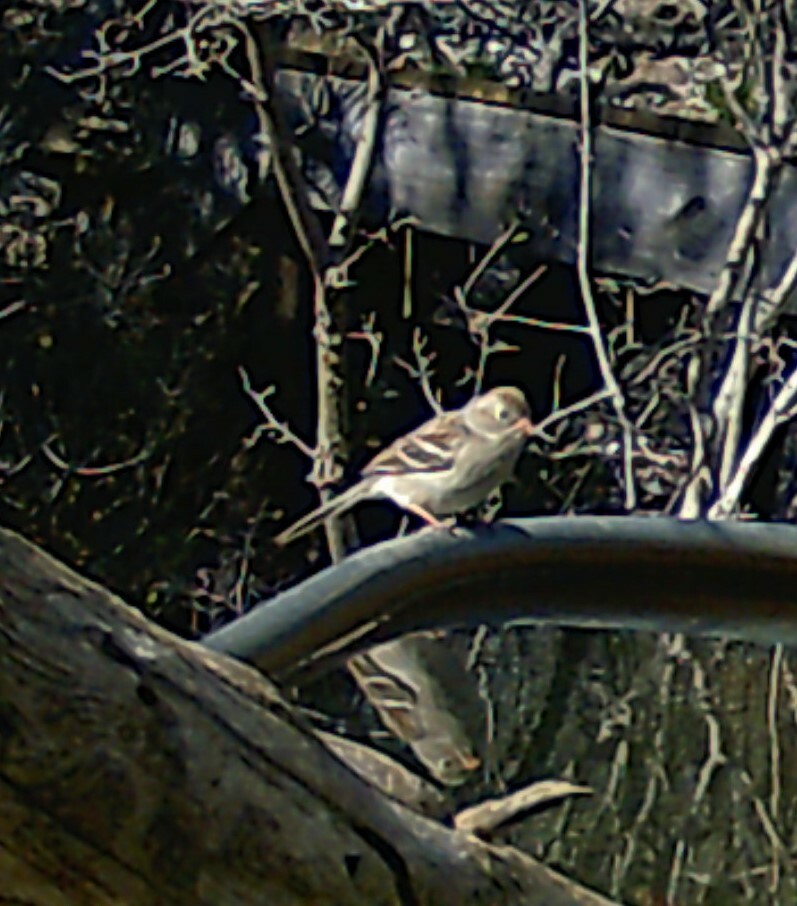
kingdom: Animalia
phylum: Chordata
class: Aves
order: Passeriformes
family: Passerellidae
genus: Spizella
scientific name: Spizella pusilla
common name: Field sparrow
